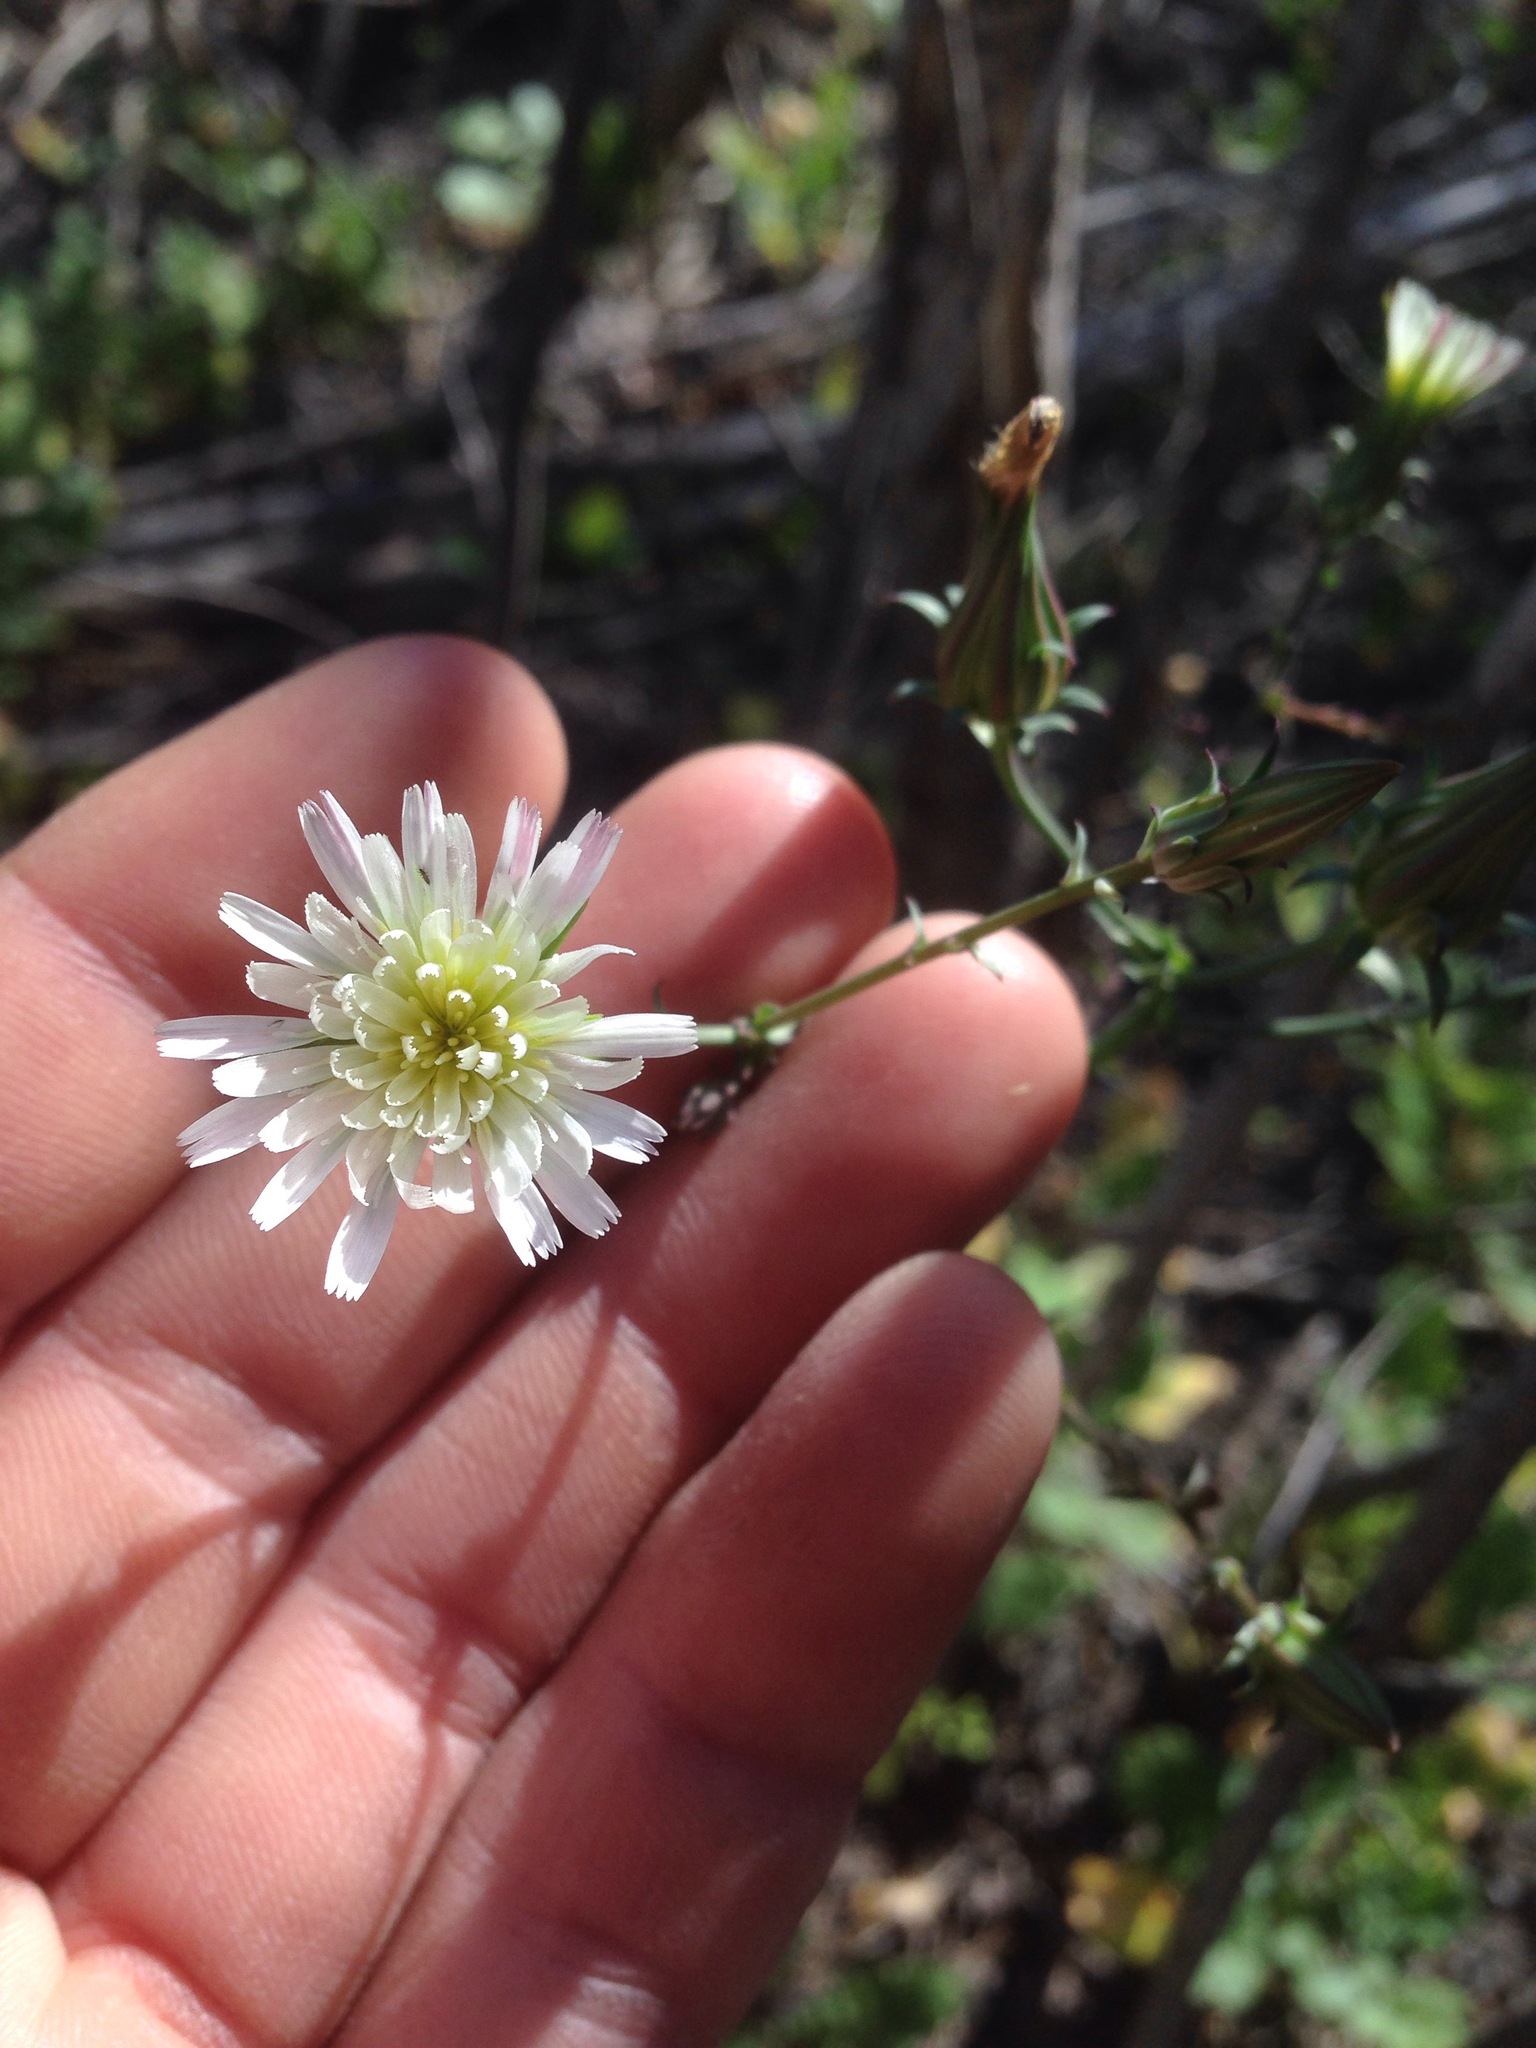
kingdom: Plantae
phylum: Tracheophyta
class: Magnoliopsida
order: Asterales
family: Asteraceae
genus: Rafinesquia
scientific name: Rafinesquia californica
